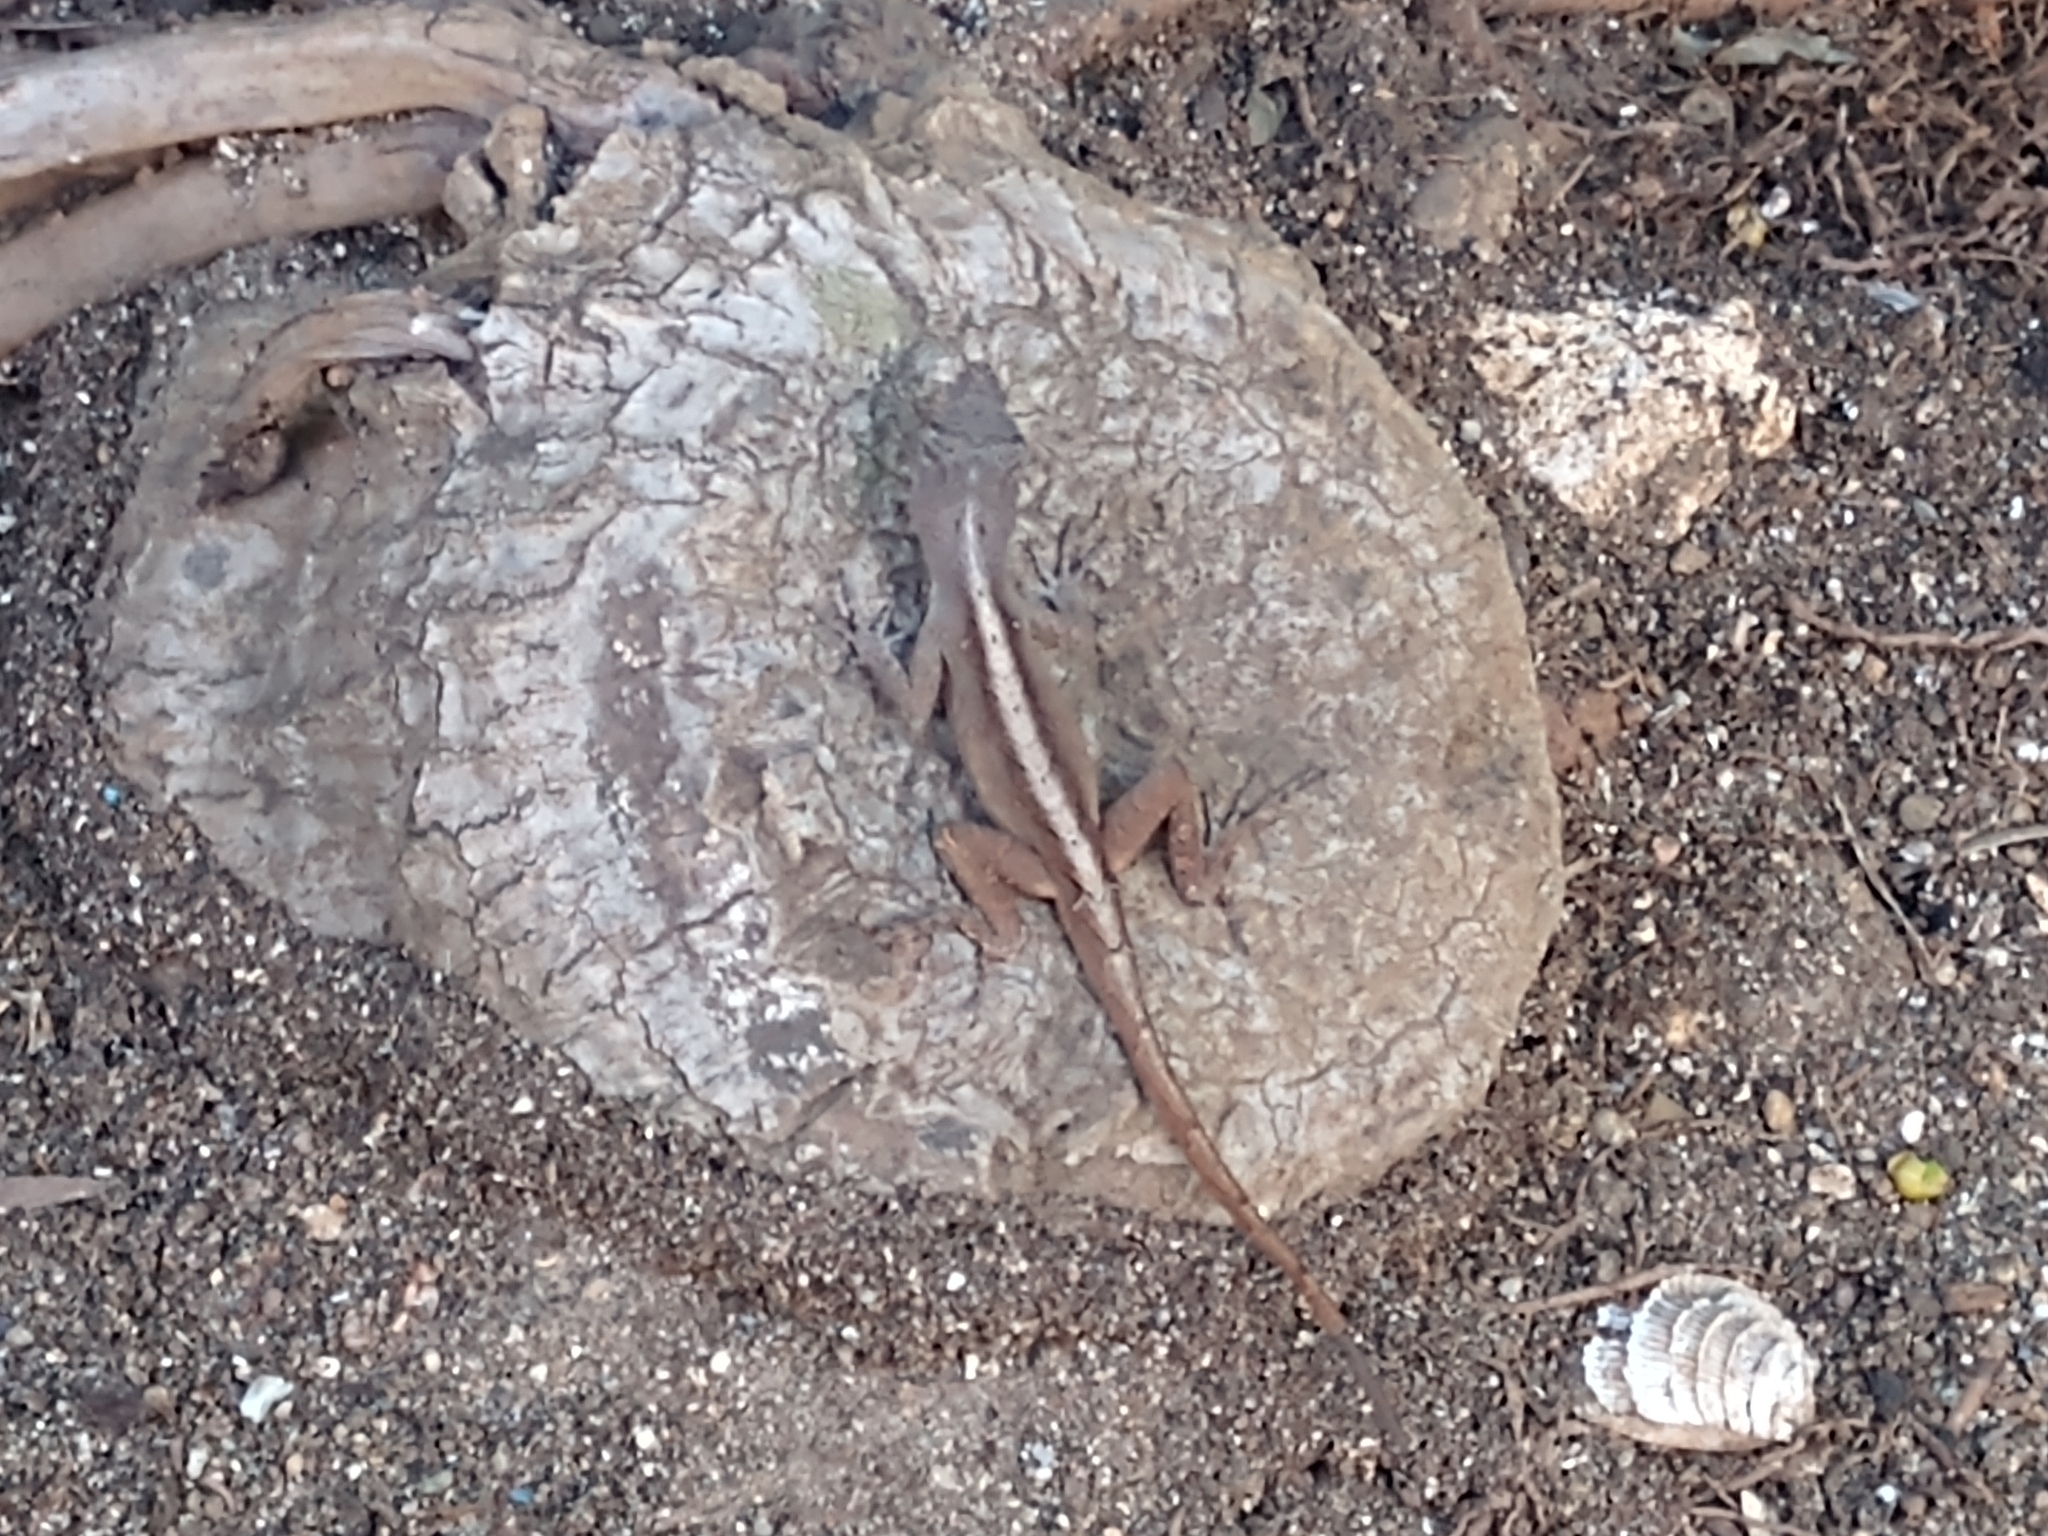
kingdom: Animalia
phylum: Chordata
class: Squamata
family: Dactyloidae
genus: Anolis
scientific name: Anolis sagrei
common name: Brown anole
